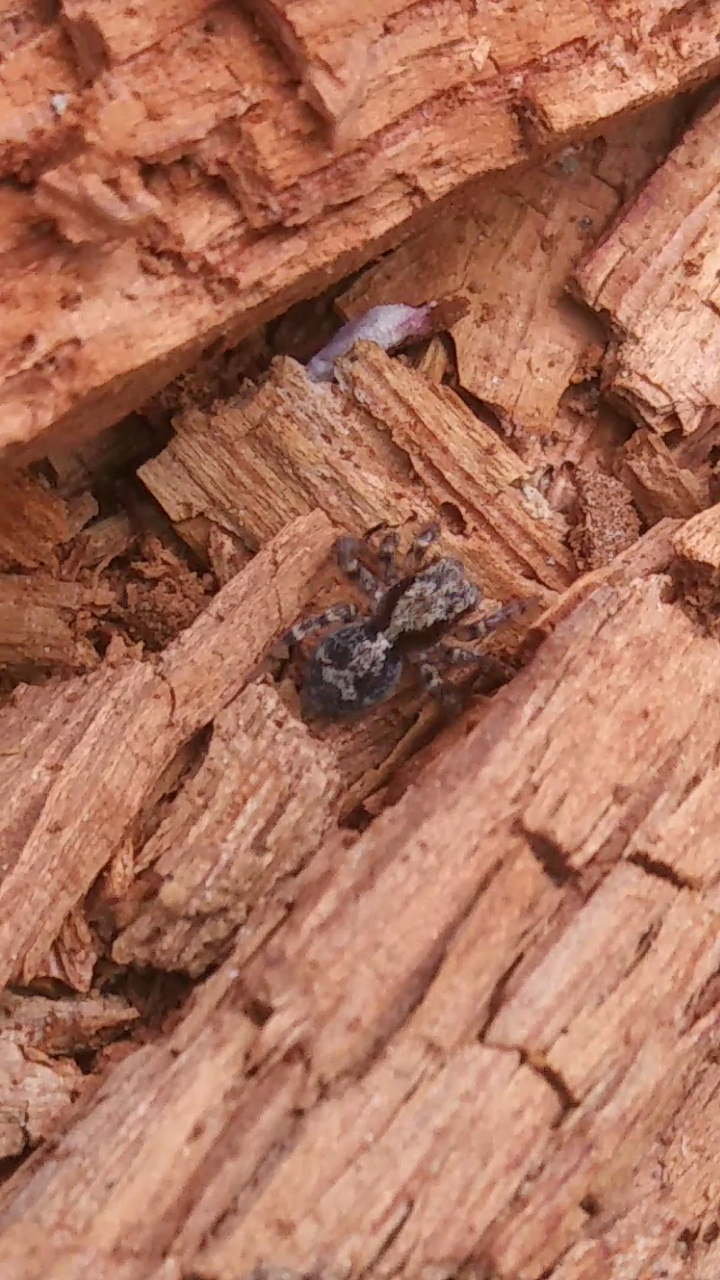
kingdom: Animalia
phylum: Arthropoda
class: Arachnida
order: Araneae
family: Salticidae
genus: Naphrys
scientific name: Naphrys pulex
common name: Flea jumping spider
